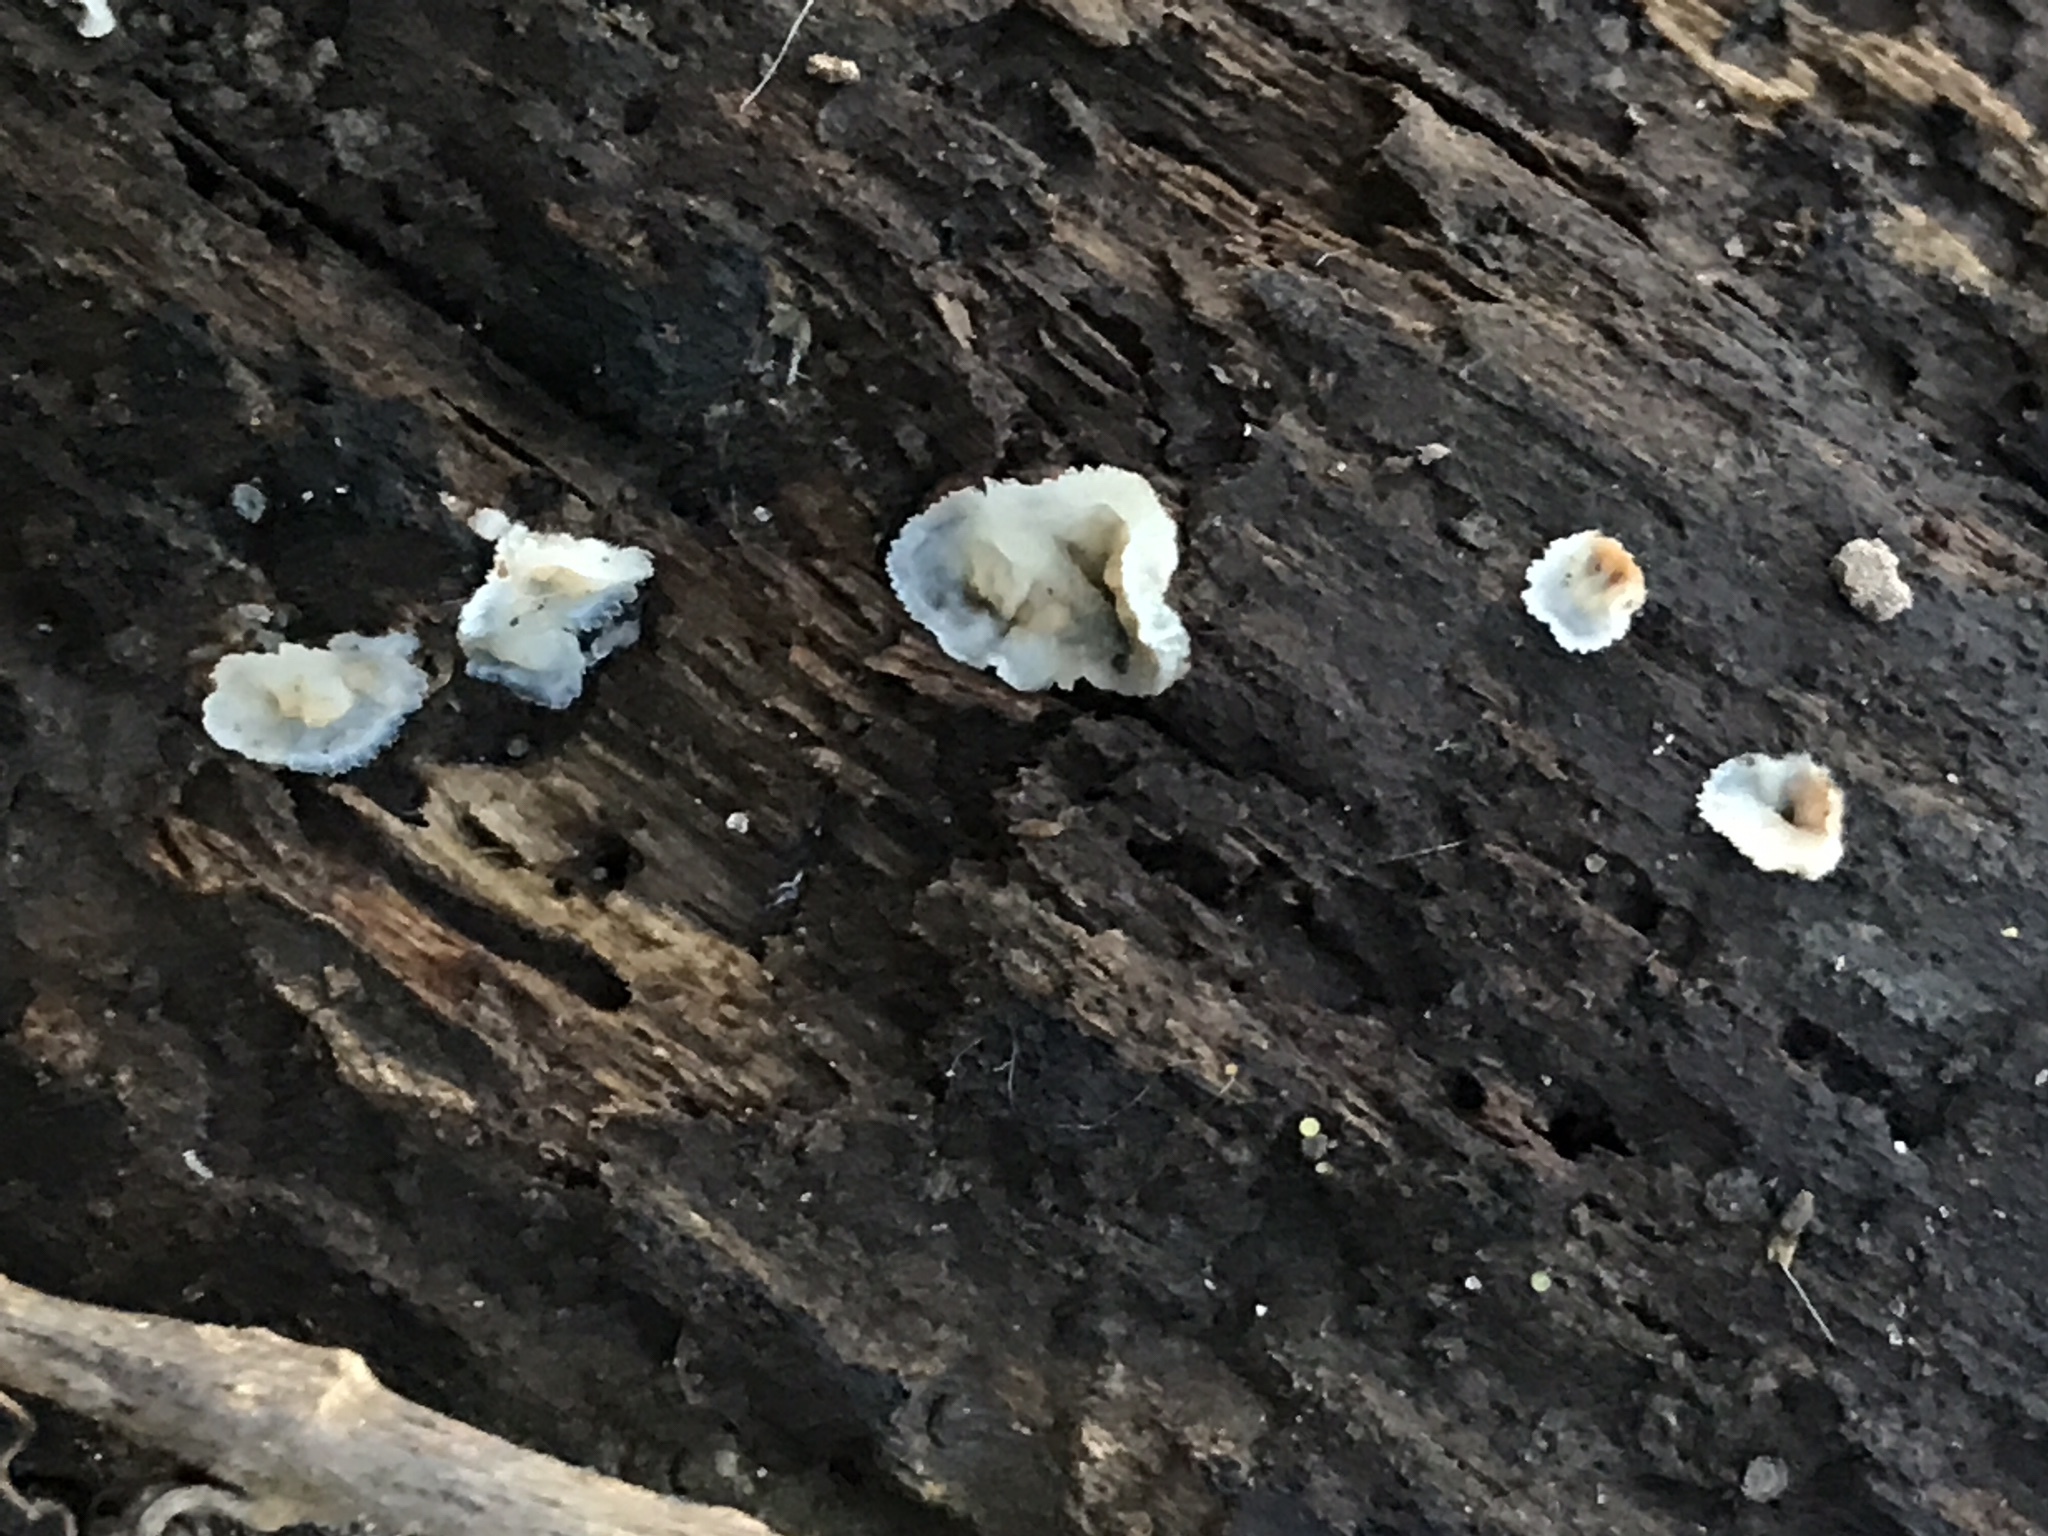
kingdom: Fungi
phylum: Basidiomycota
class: Agaricomycetes
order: Polyporales
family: Meruliaceae
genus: Phlebia
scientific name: Phlebia tremellosa
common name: Jelly rot
